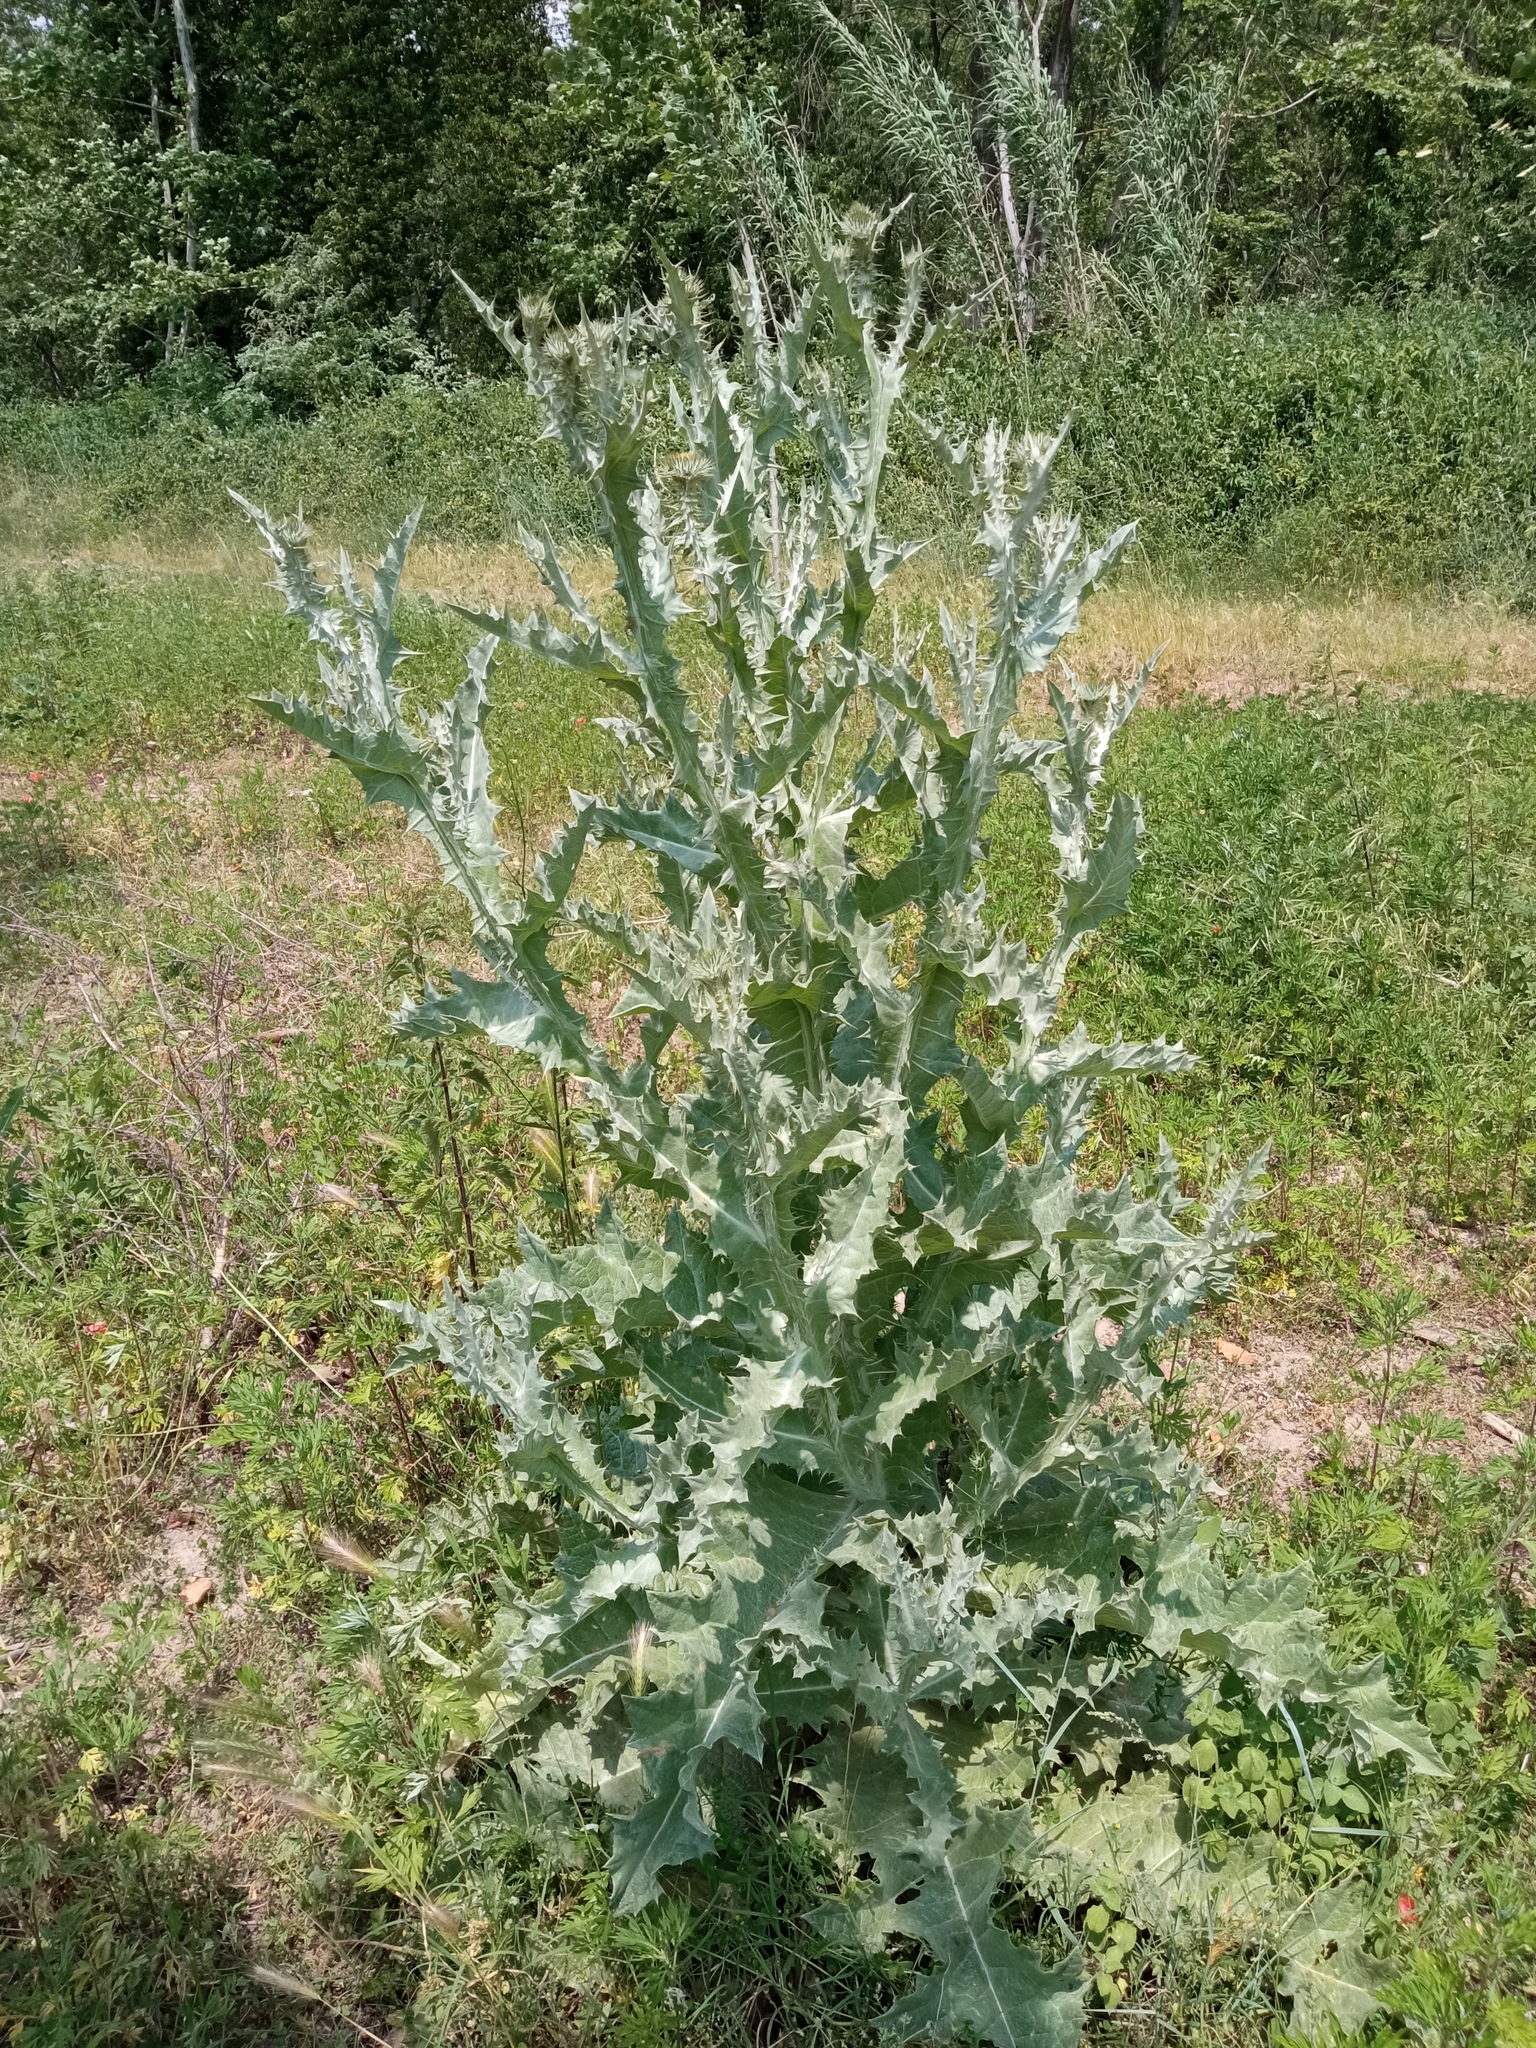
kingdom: Plantae
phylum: Tracheophyta
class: Magnoliopsida
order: Asterales
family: Asteraceae
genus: Onopordum
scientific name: Onopordum acanthium
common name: Scotch thistle
